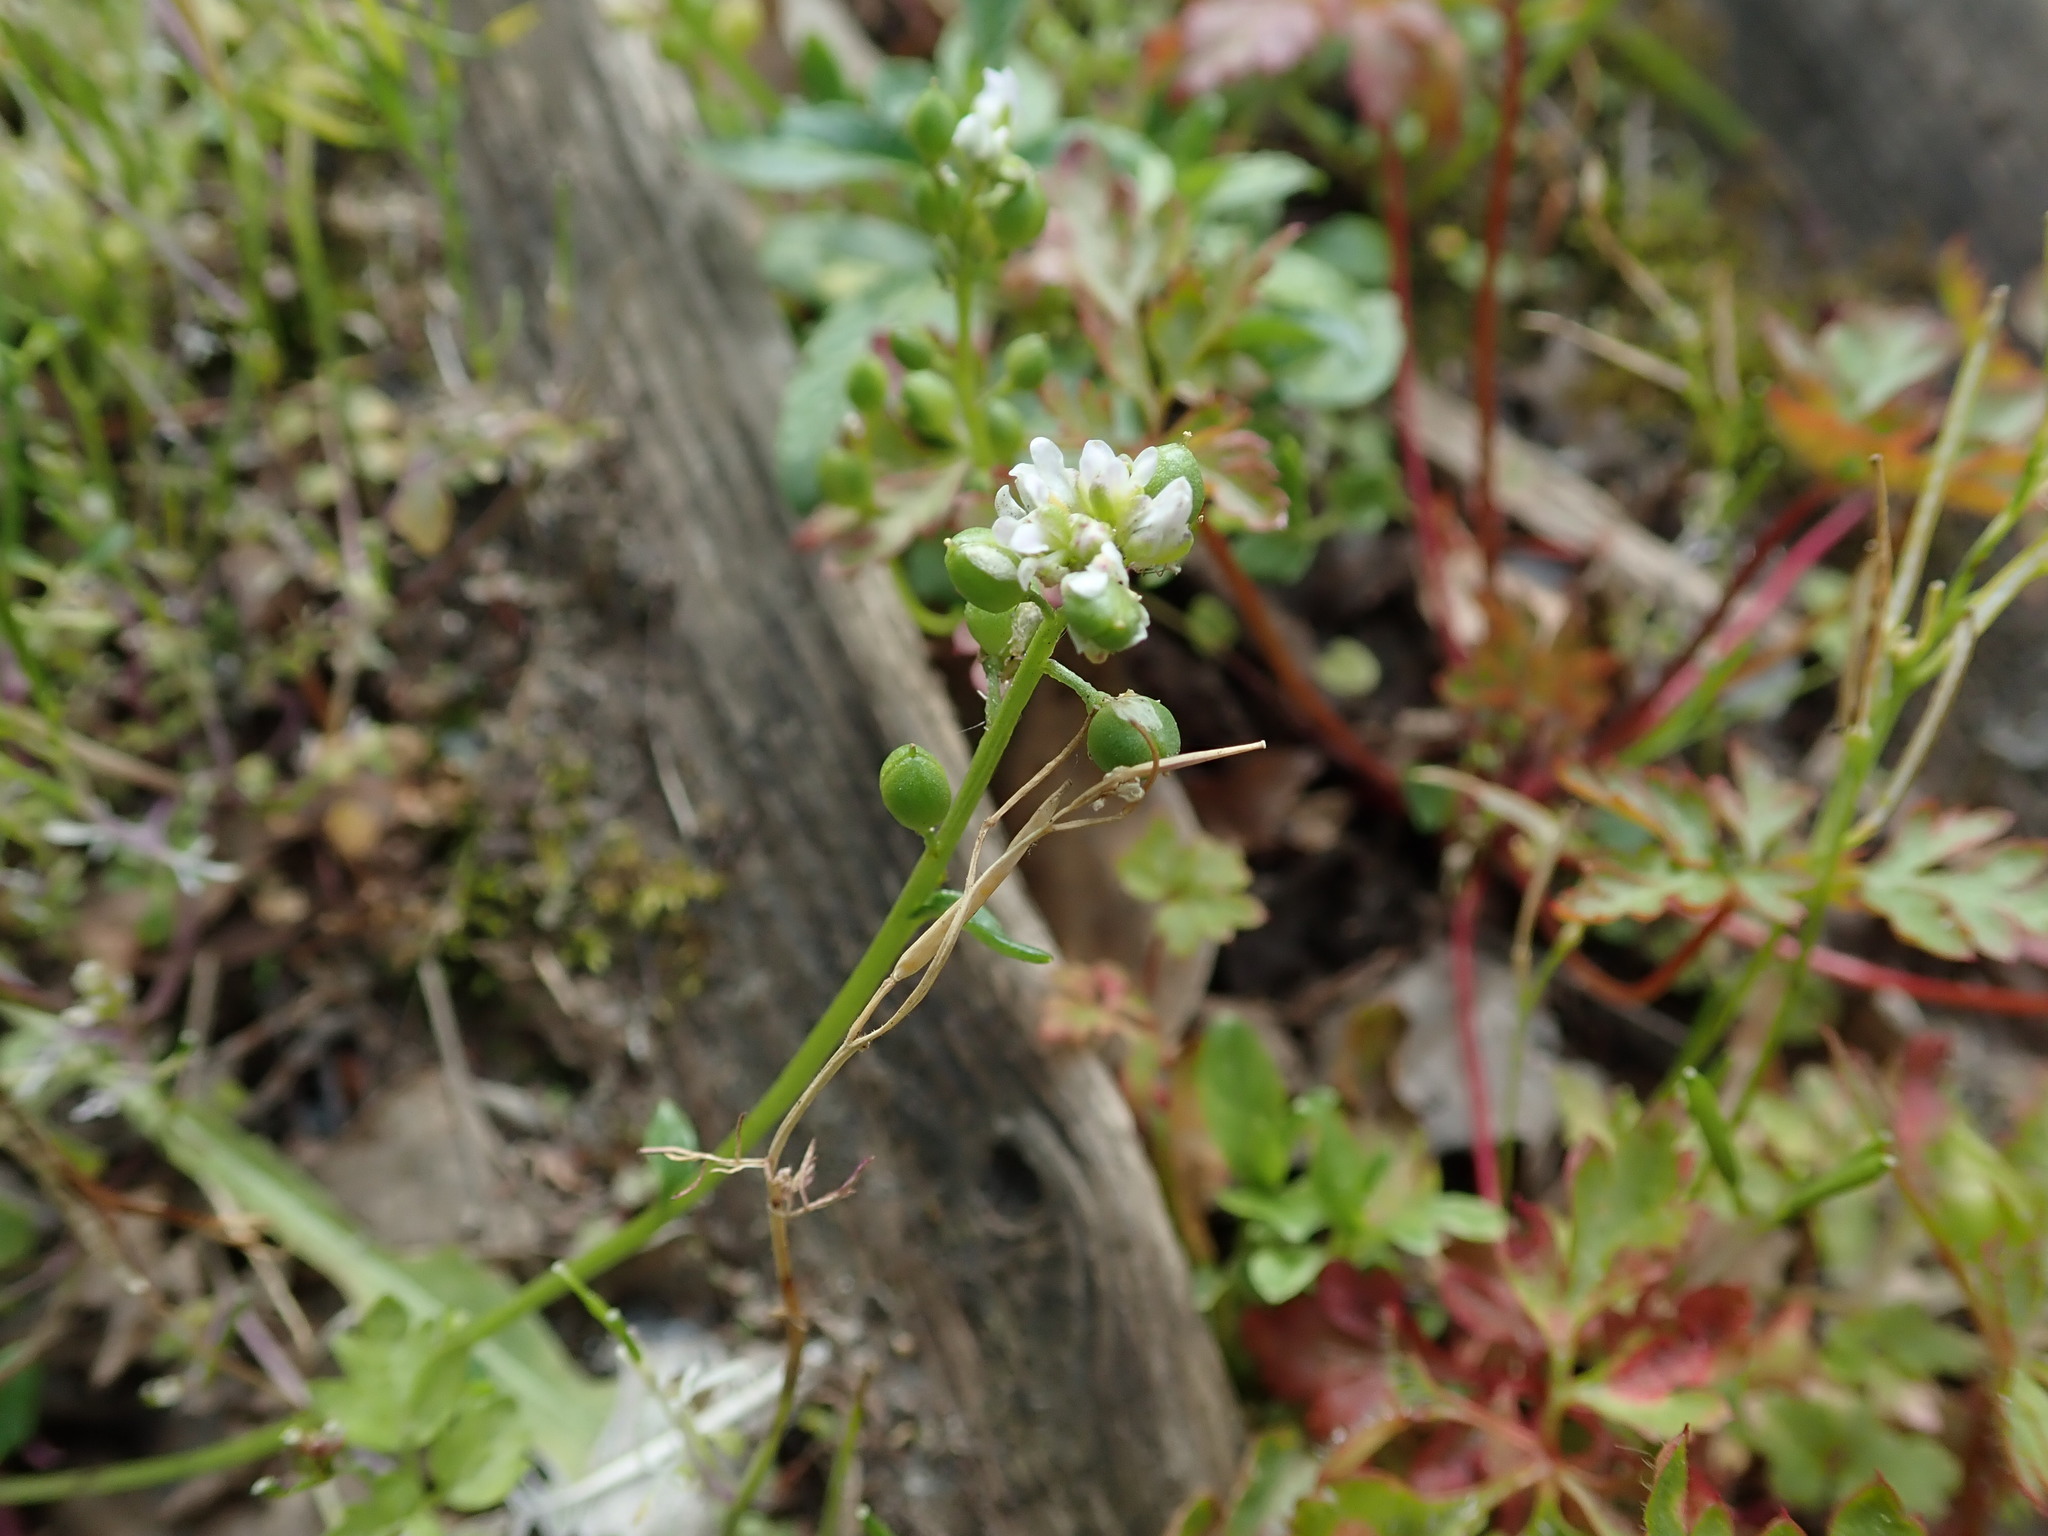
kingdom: Plantae
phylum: Tracheophyta
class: Magnoliopsida
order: Brassicales
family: Brassicaceae
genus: Cochlearia
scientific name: Cochlearia danica
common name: Early scurvygrass
